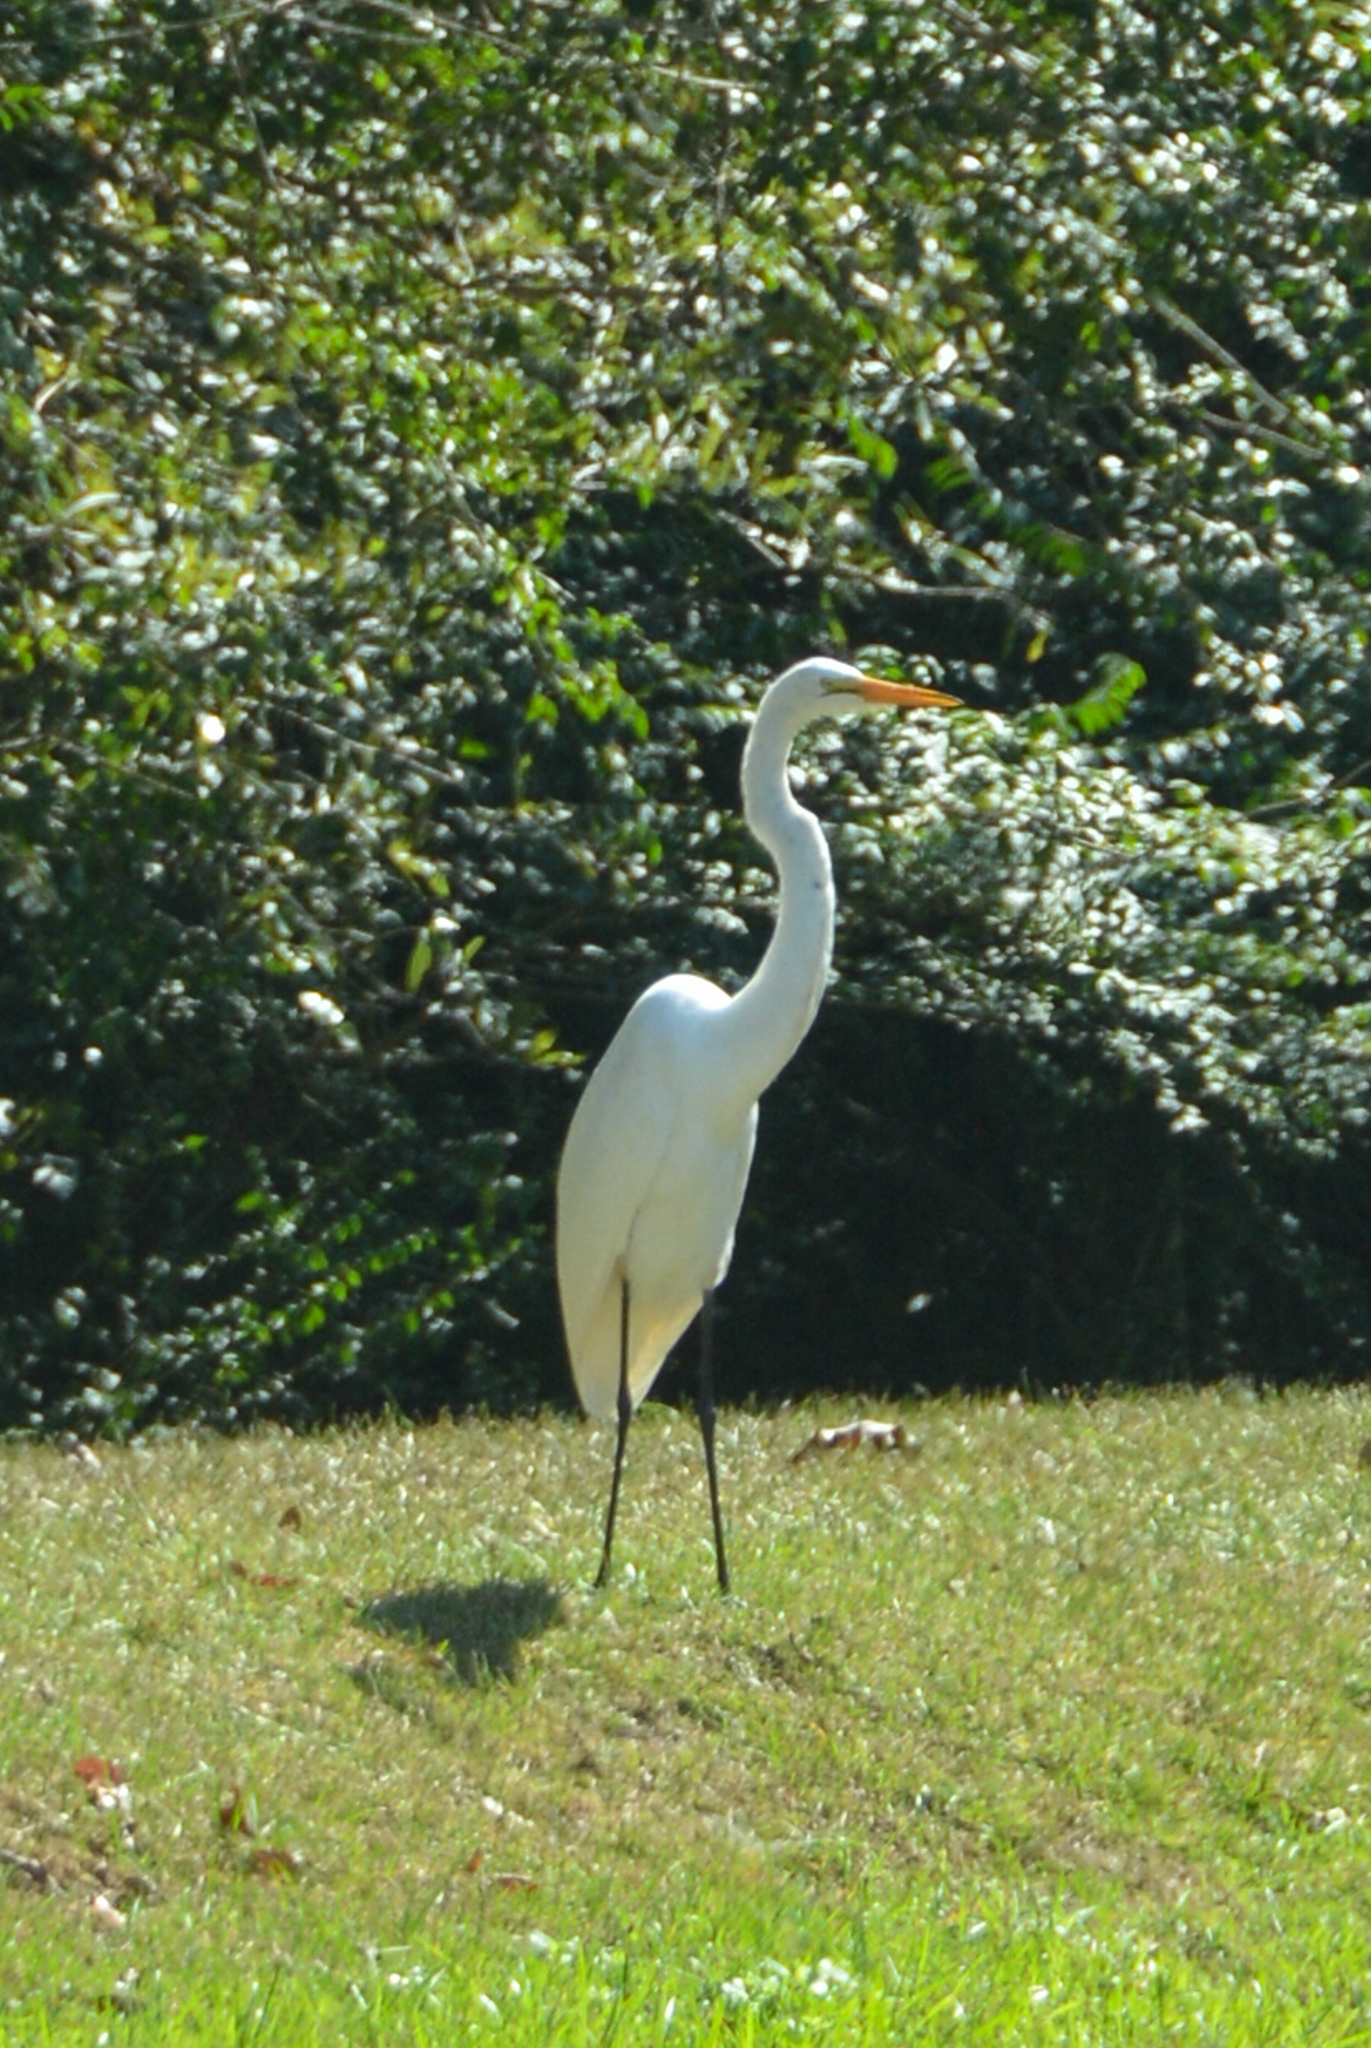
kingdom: Animalia
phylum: Chordata
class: Aves
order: Pelecaniformes
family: Ardeidae
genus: Ardea
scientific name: Ardea alba
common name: Great egret
